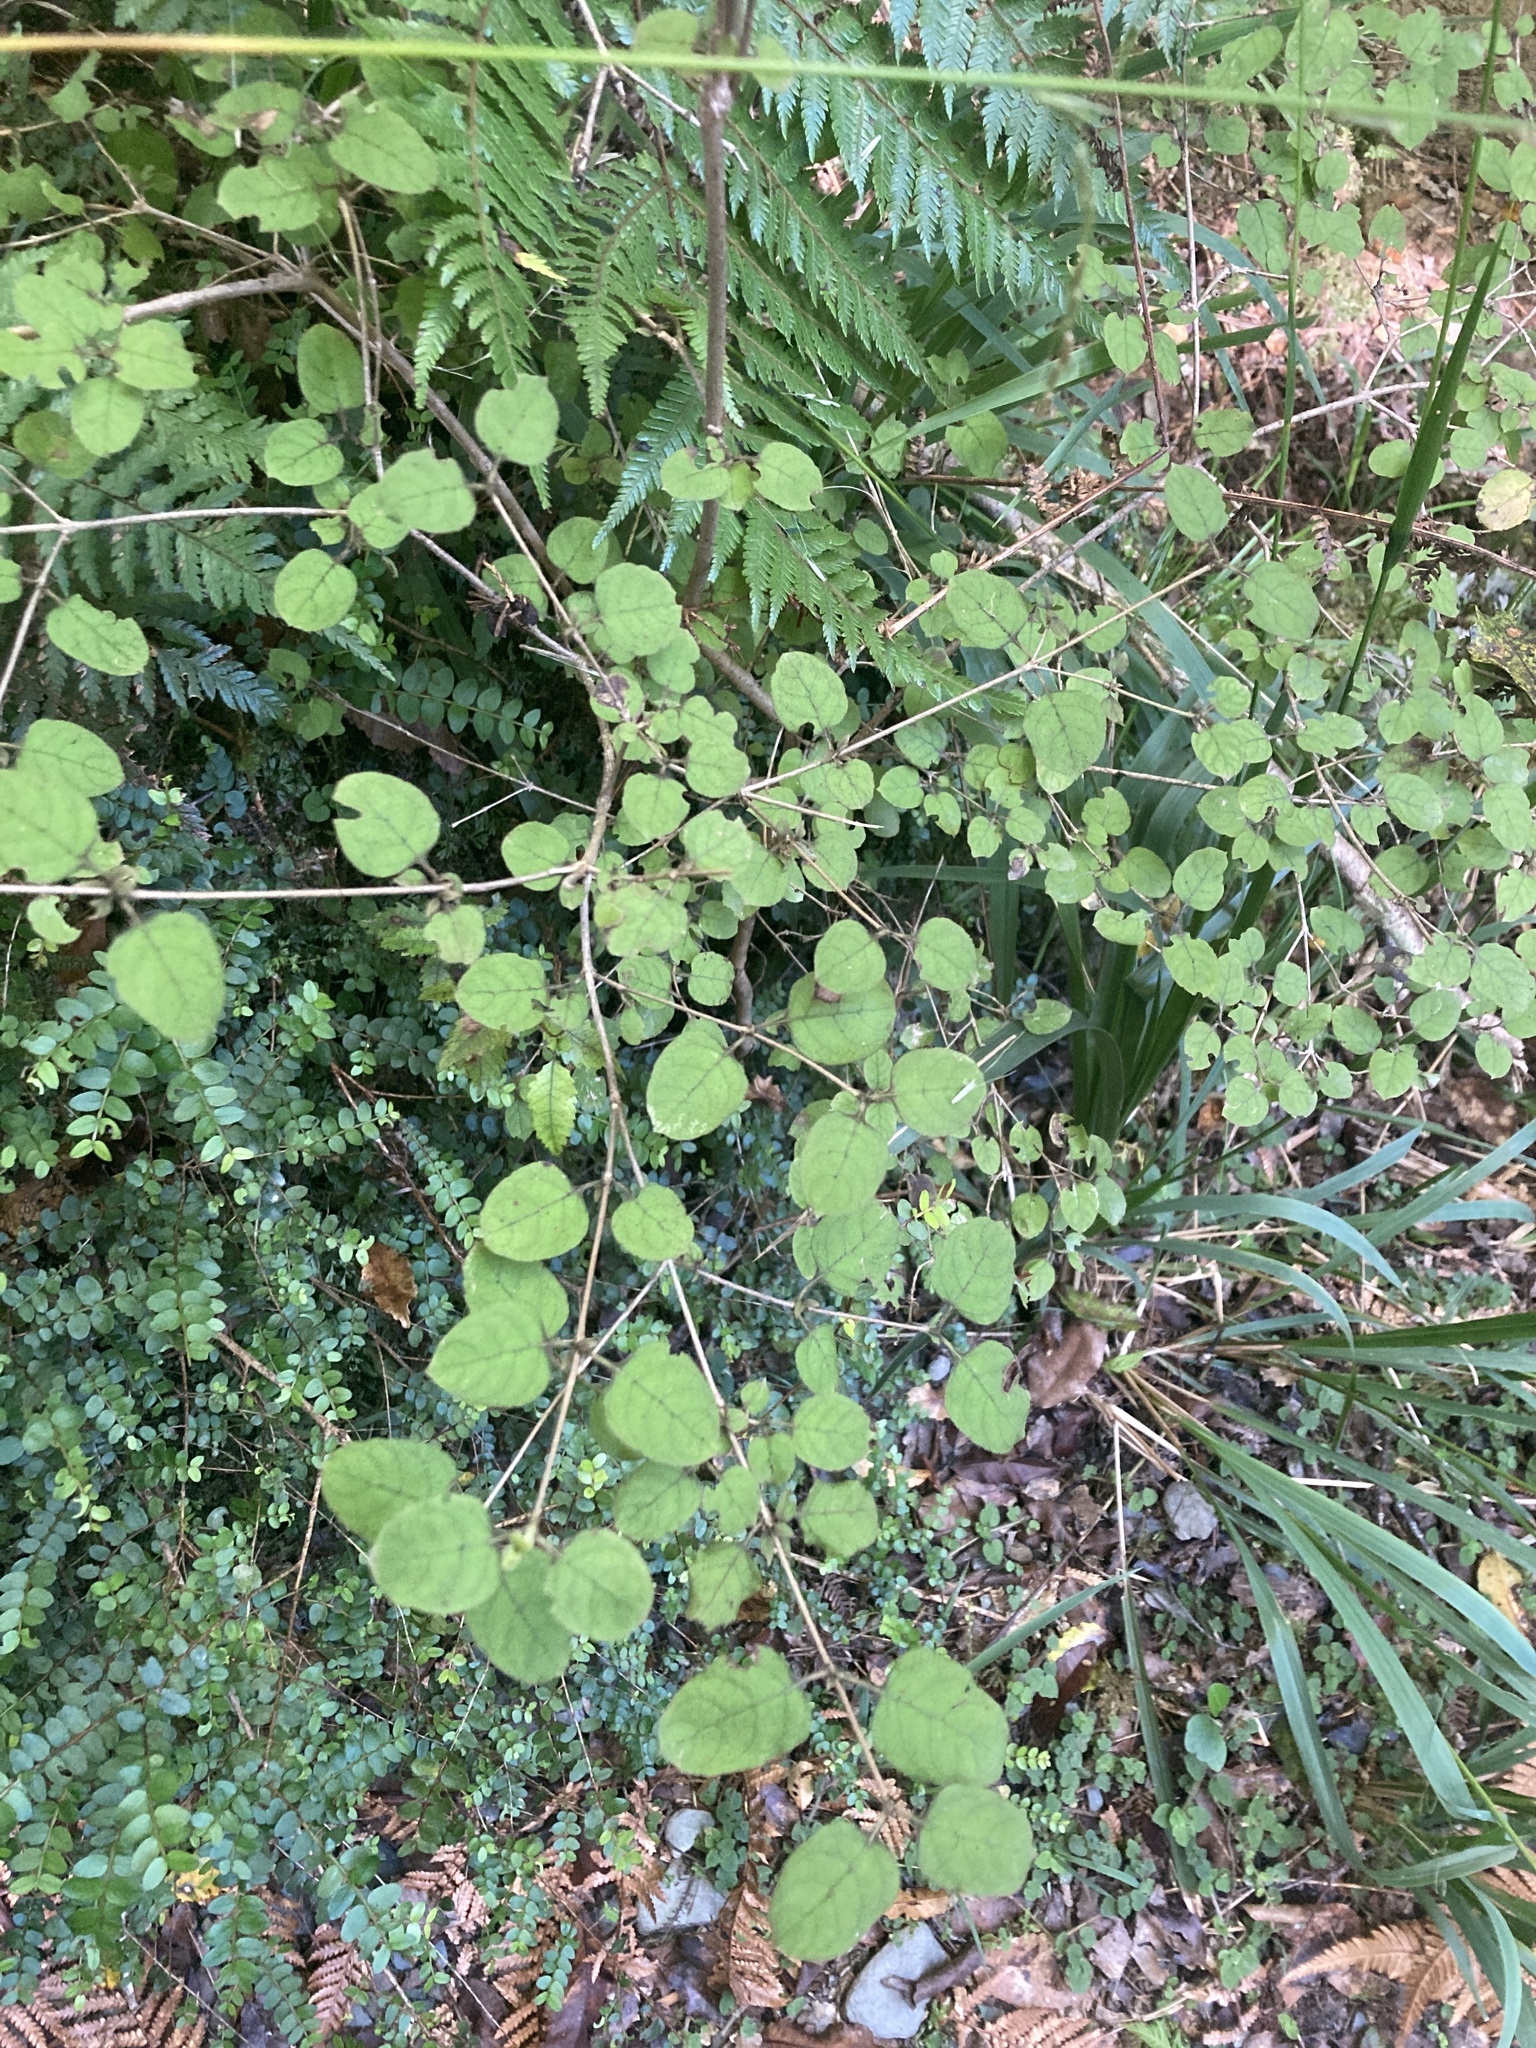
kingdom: Plantae
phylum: Tracheophyta
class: Magnoliopsida
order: Gentianales
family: Rubiaceae
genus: Coprosma
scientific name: Coprosma rotundifolia
